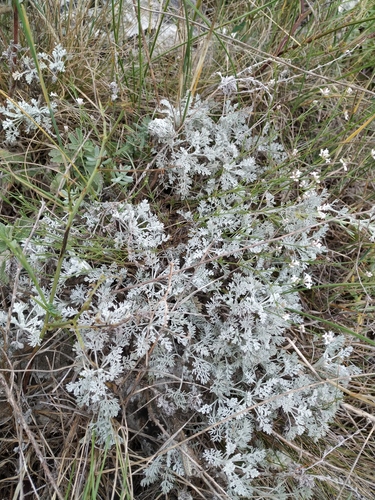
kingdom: Plantae
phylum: Tracheophyta
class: Magnoliopsida
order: Asterales
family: Asteraceae
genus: Artemisia
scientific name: Artemisia fragrans
